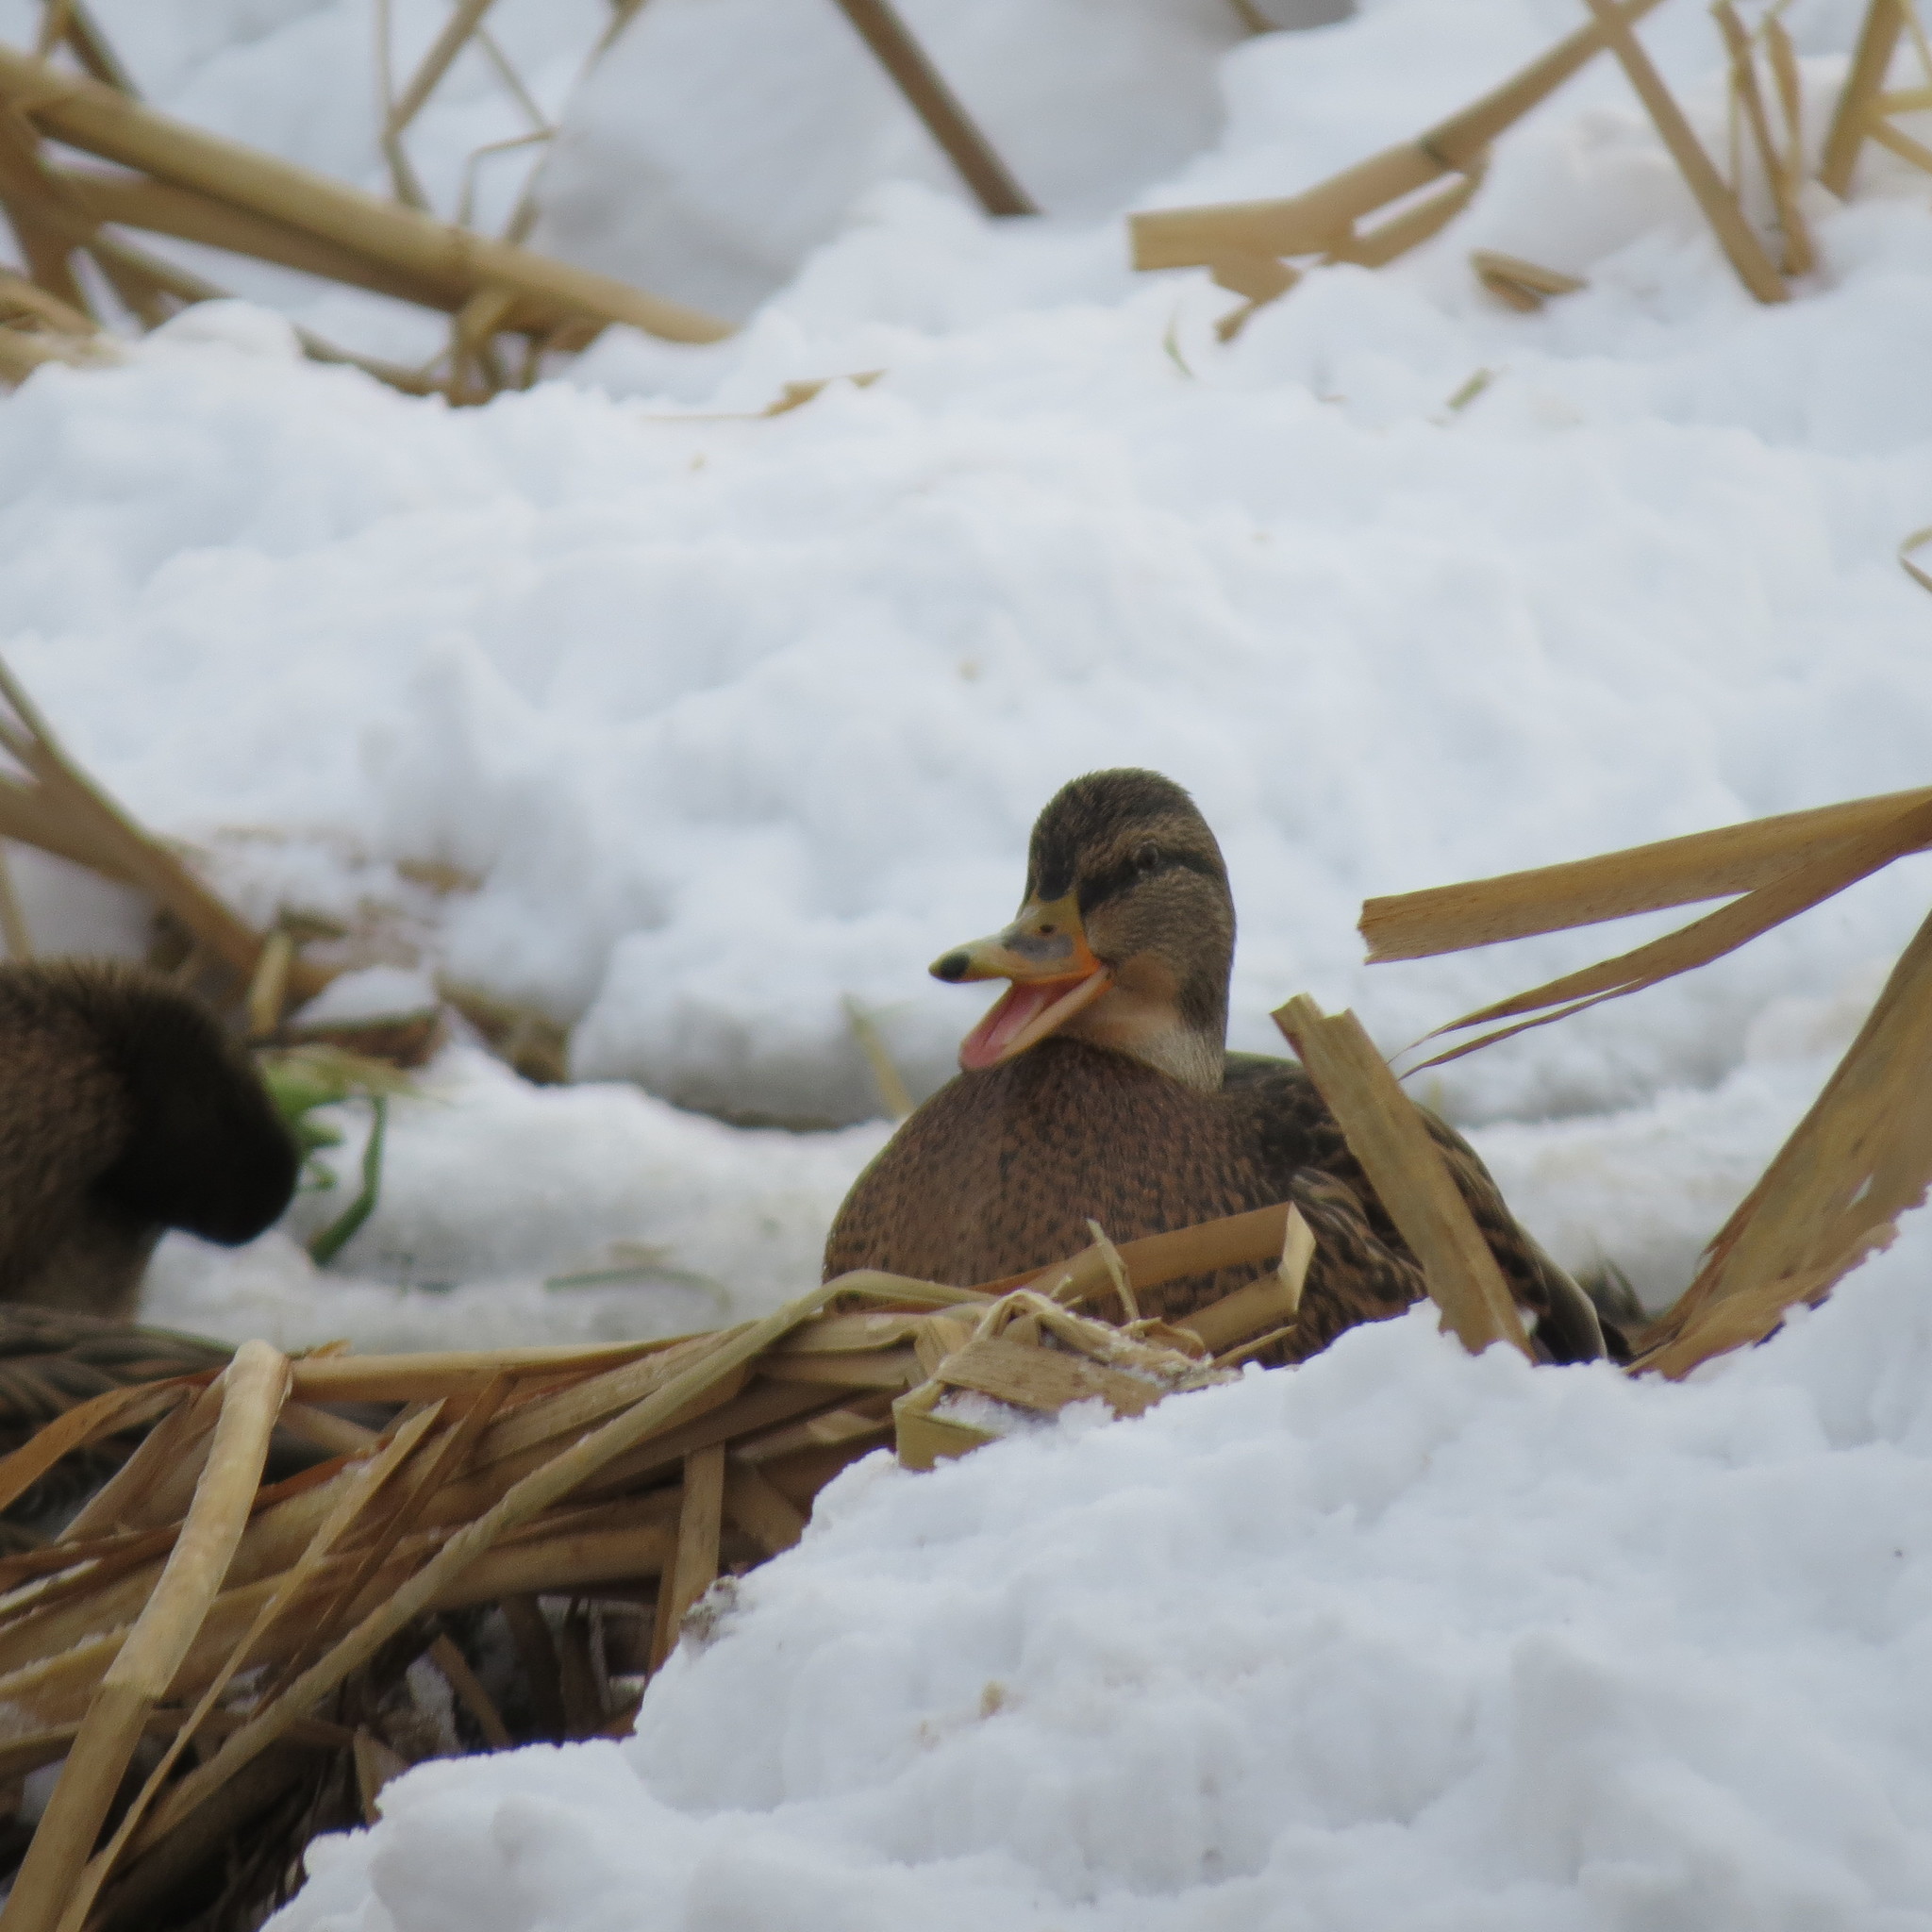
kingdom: Animalia
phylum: Chordata
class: Aves
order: Anseriformes
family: Anatidae
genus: Anas
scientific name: Anas platyrhynchos
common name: Mallard
